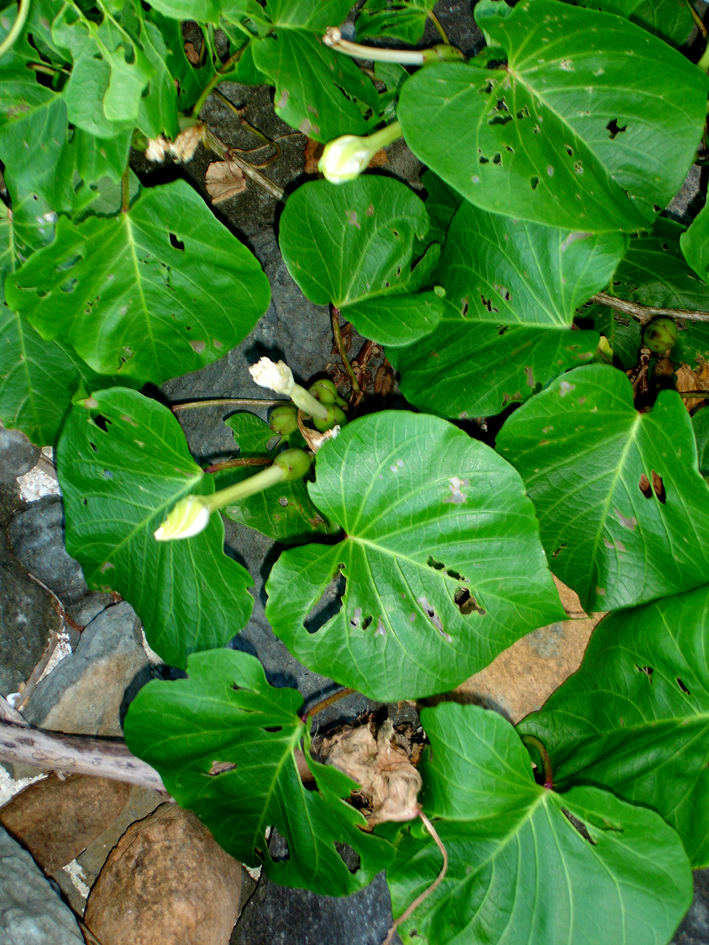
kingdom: Plantae
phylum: Tracheophyta
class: Magnoliopsida
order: Solanales
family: Convolvulaceae
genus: Ipomoea
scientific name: Ipomoea violacea
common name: Beach moonflower
